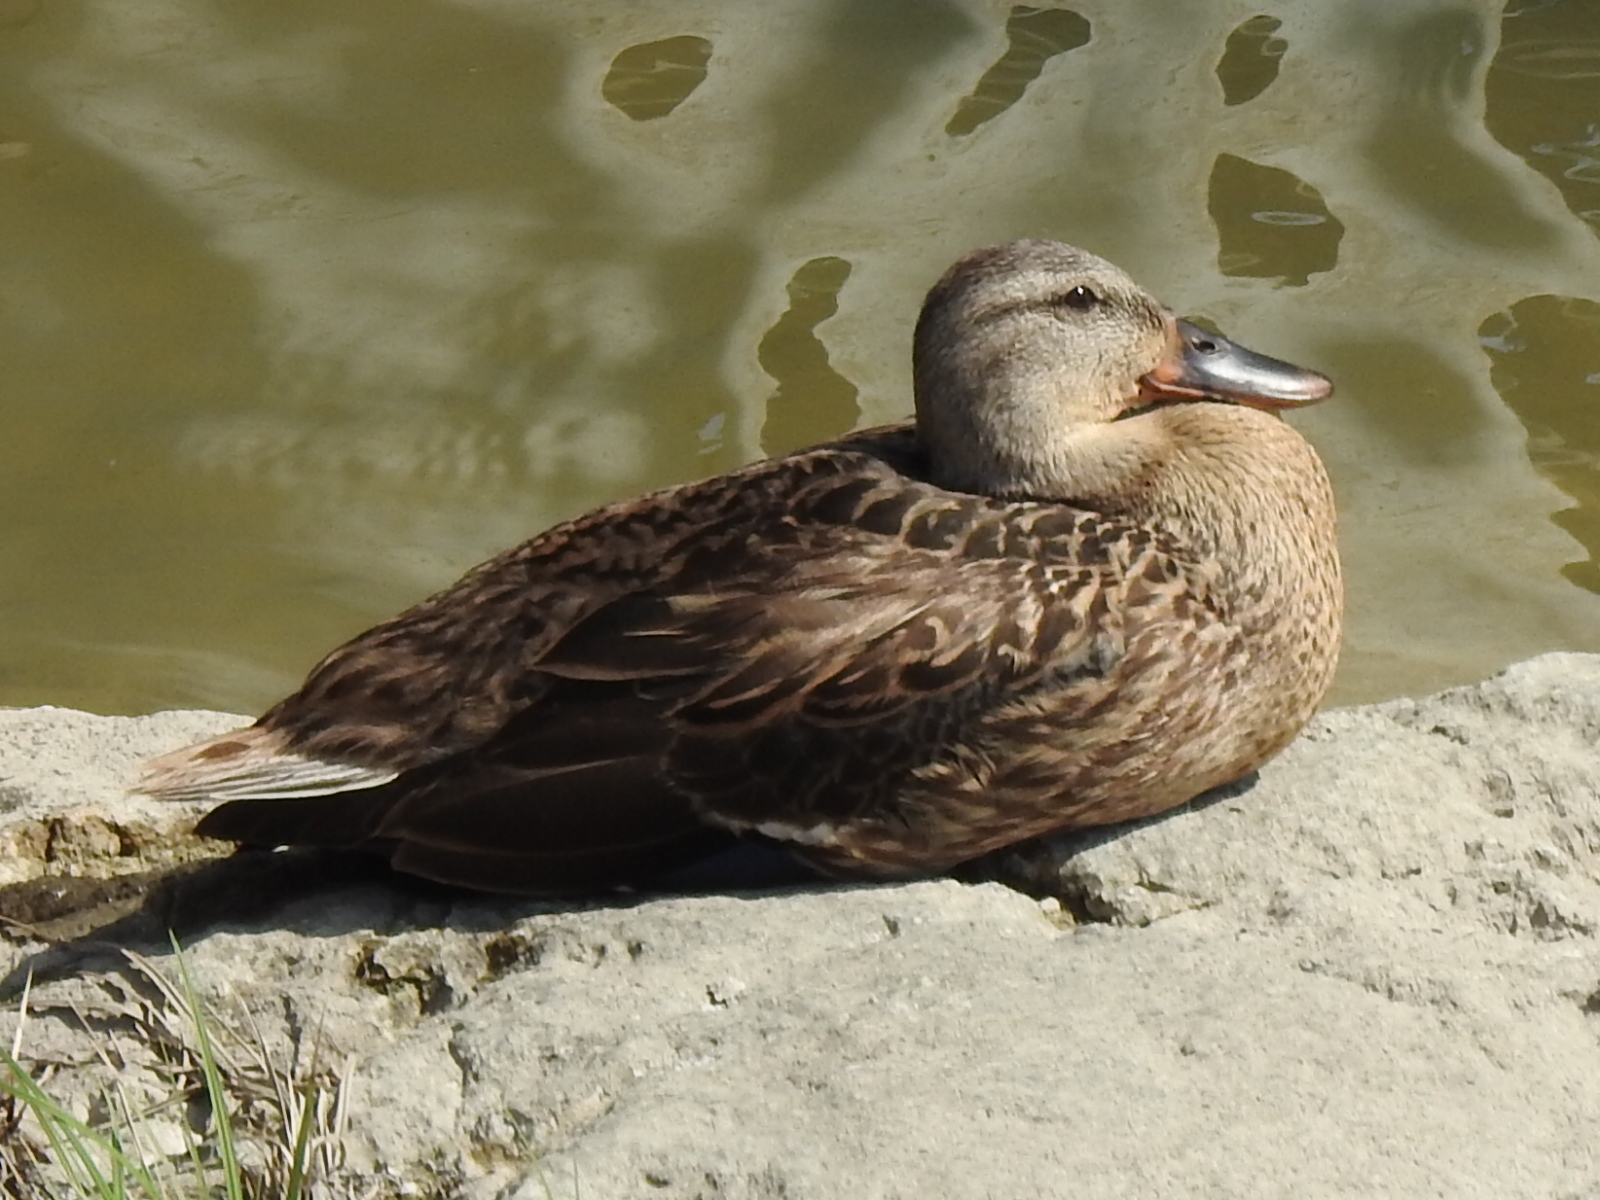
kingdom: Animalia
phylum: Chordata
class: Aves
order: Anseriformes
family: Anatidae
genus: Anas
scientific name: Anas platyrhynchos
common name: Mallard
